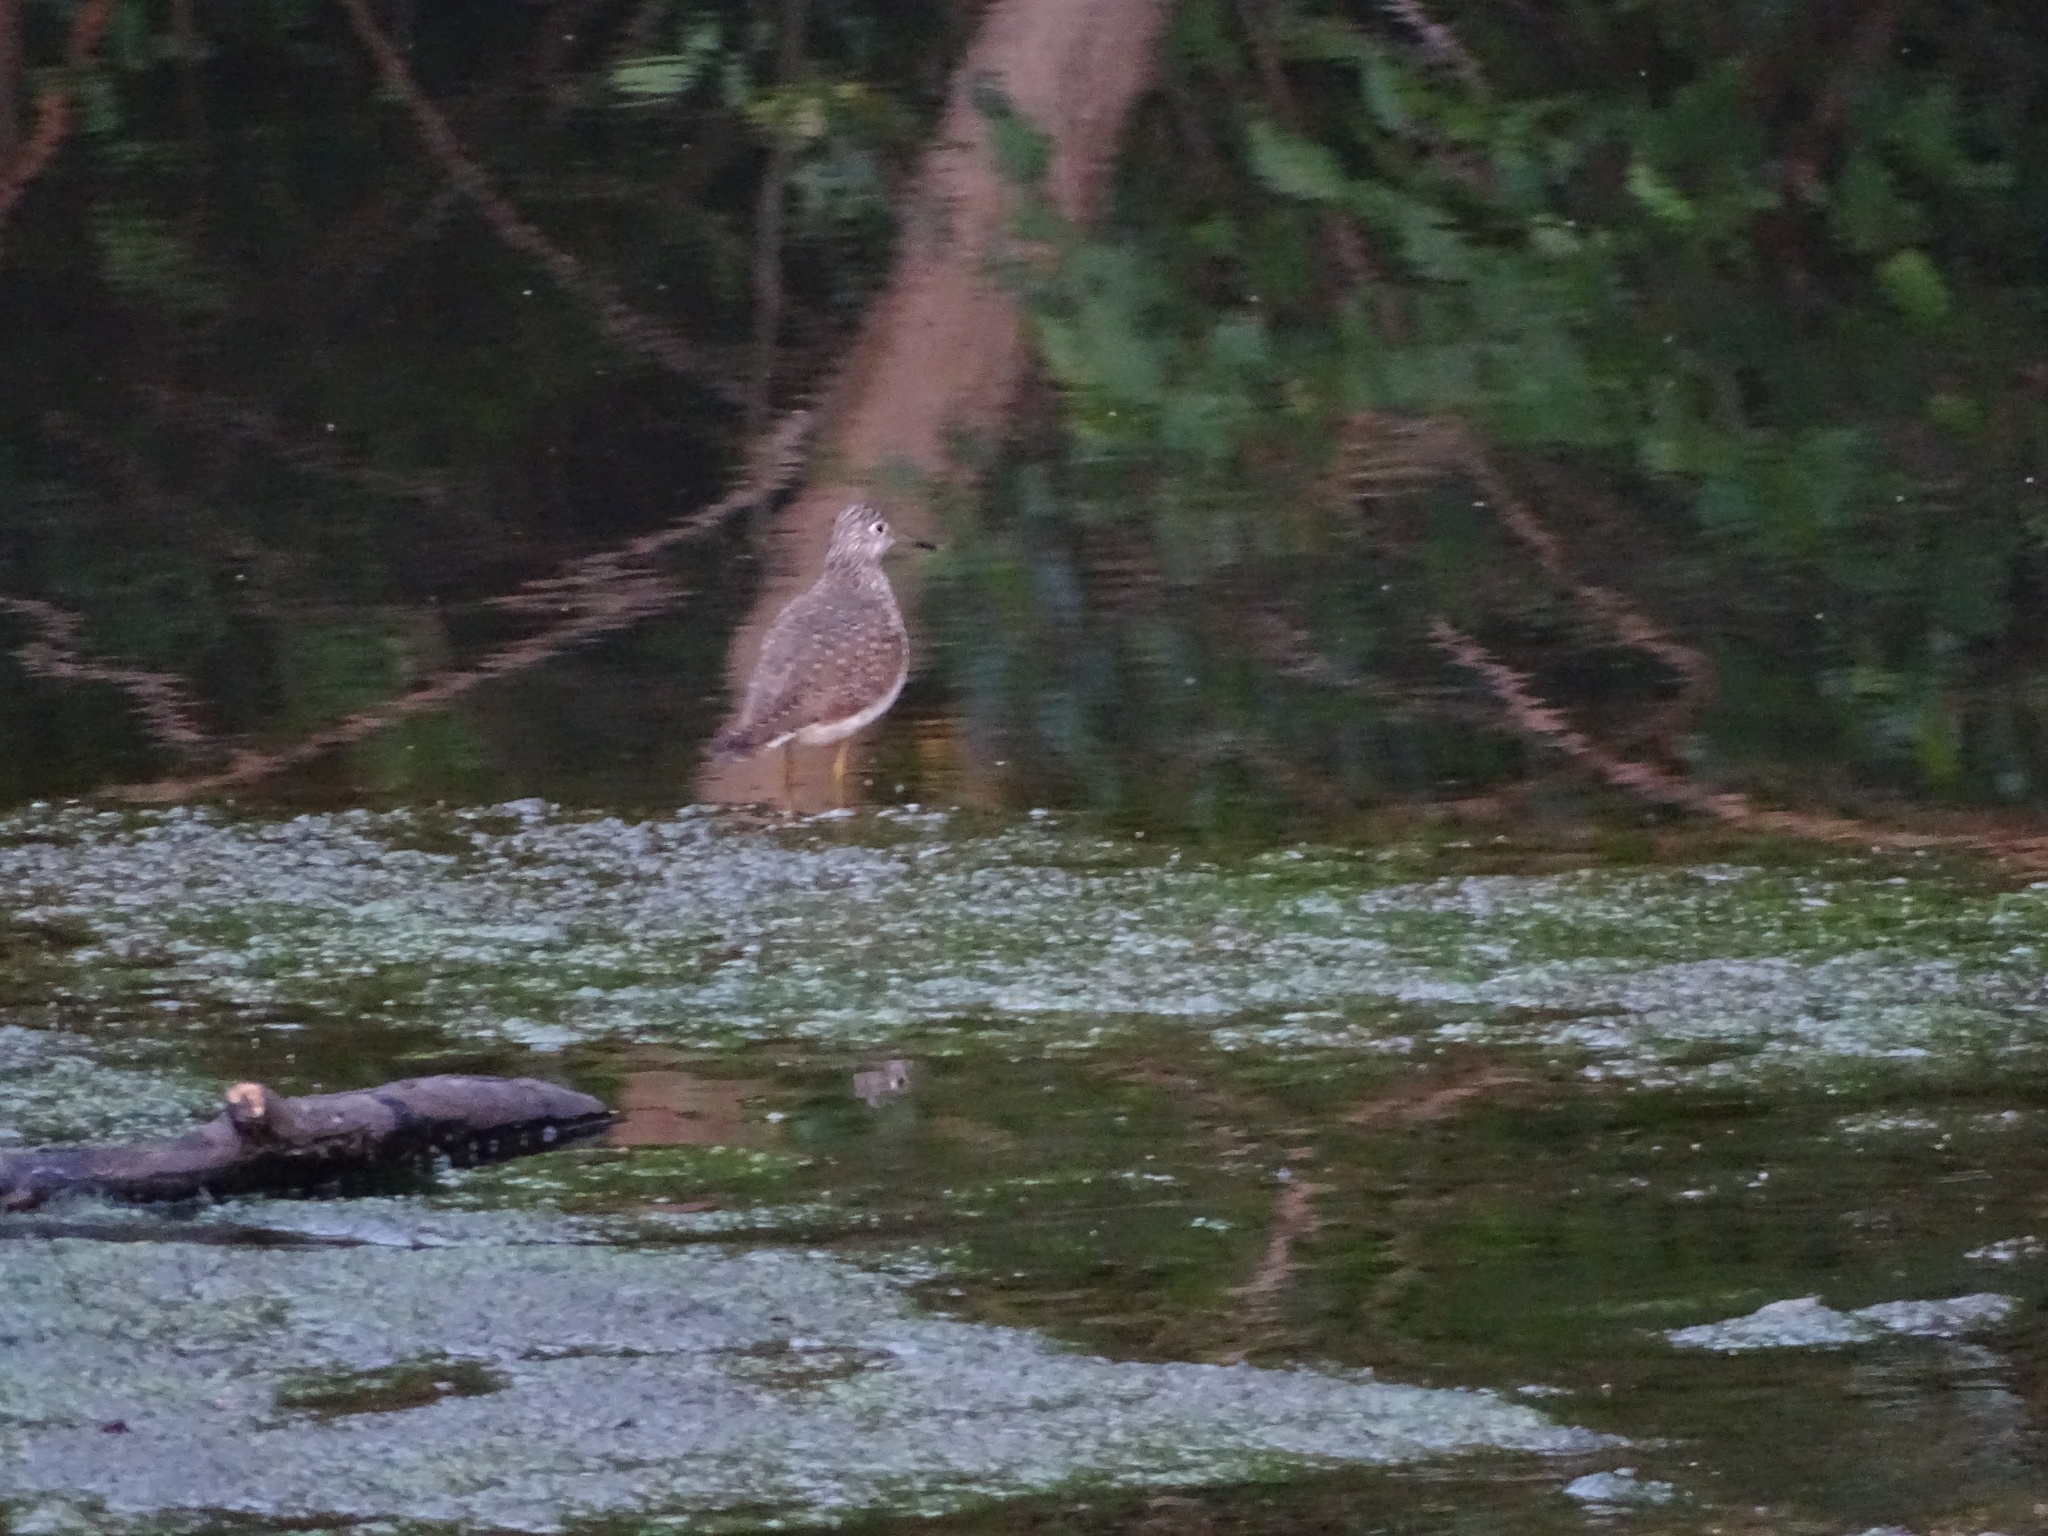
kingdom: Animalia
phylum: Chordata
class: Aves
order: Charadriiformes
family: Scolopacidae
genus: Tringa
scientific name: Tringa solitaria
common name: Solitary sandpiper
